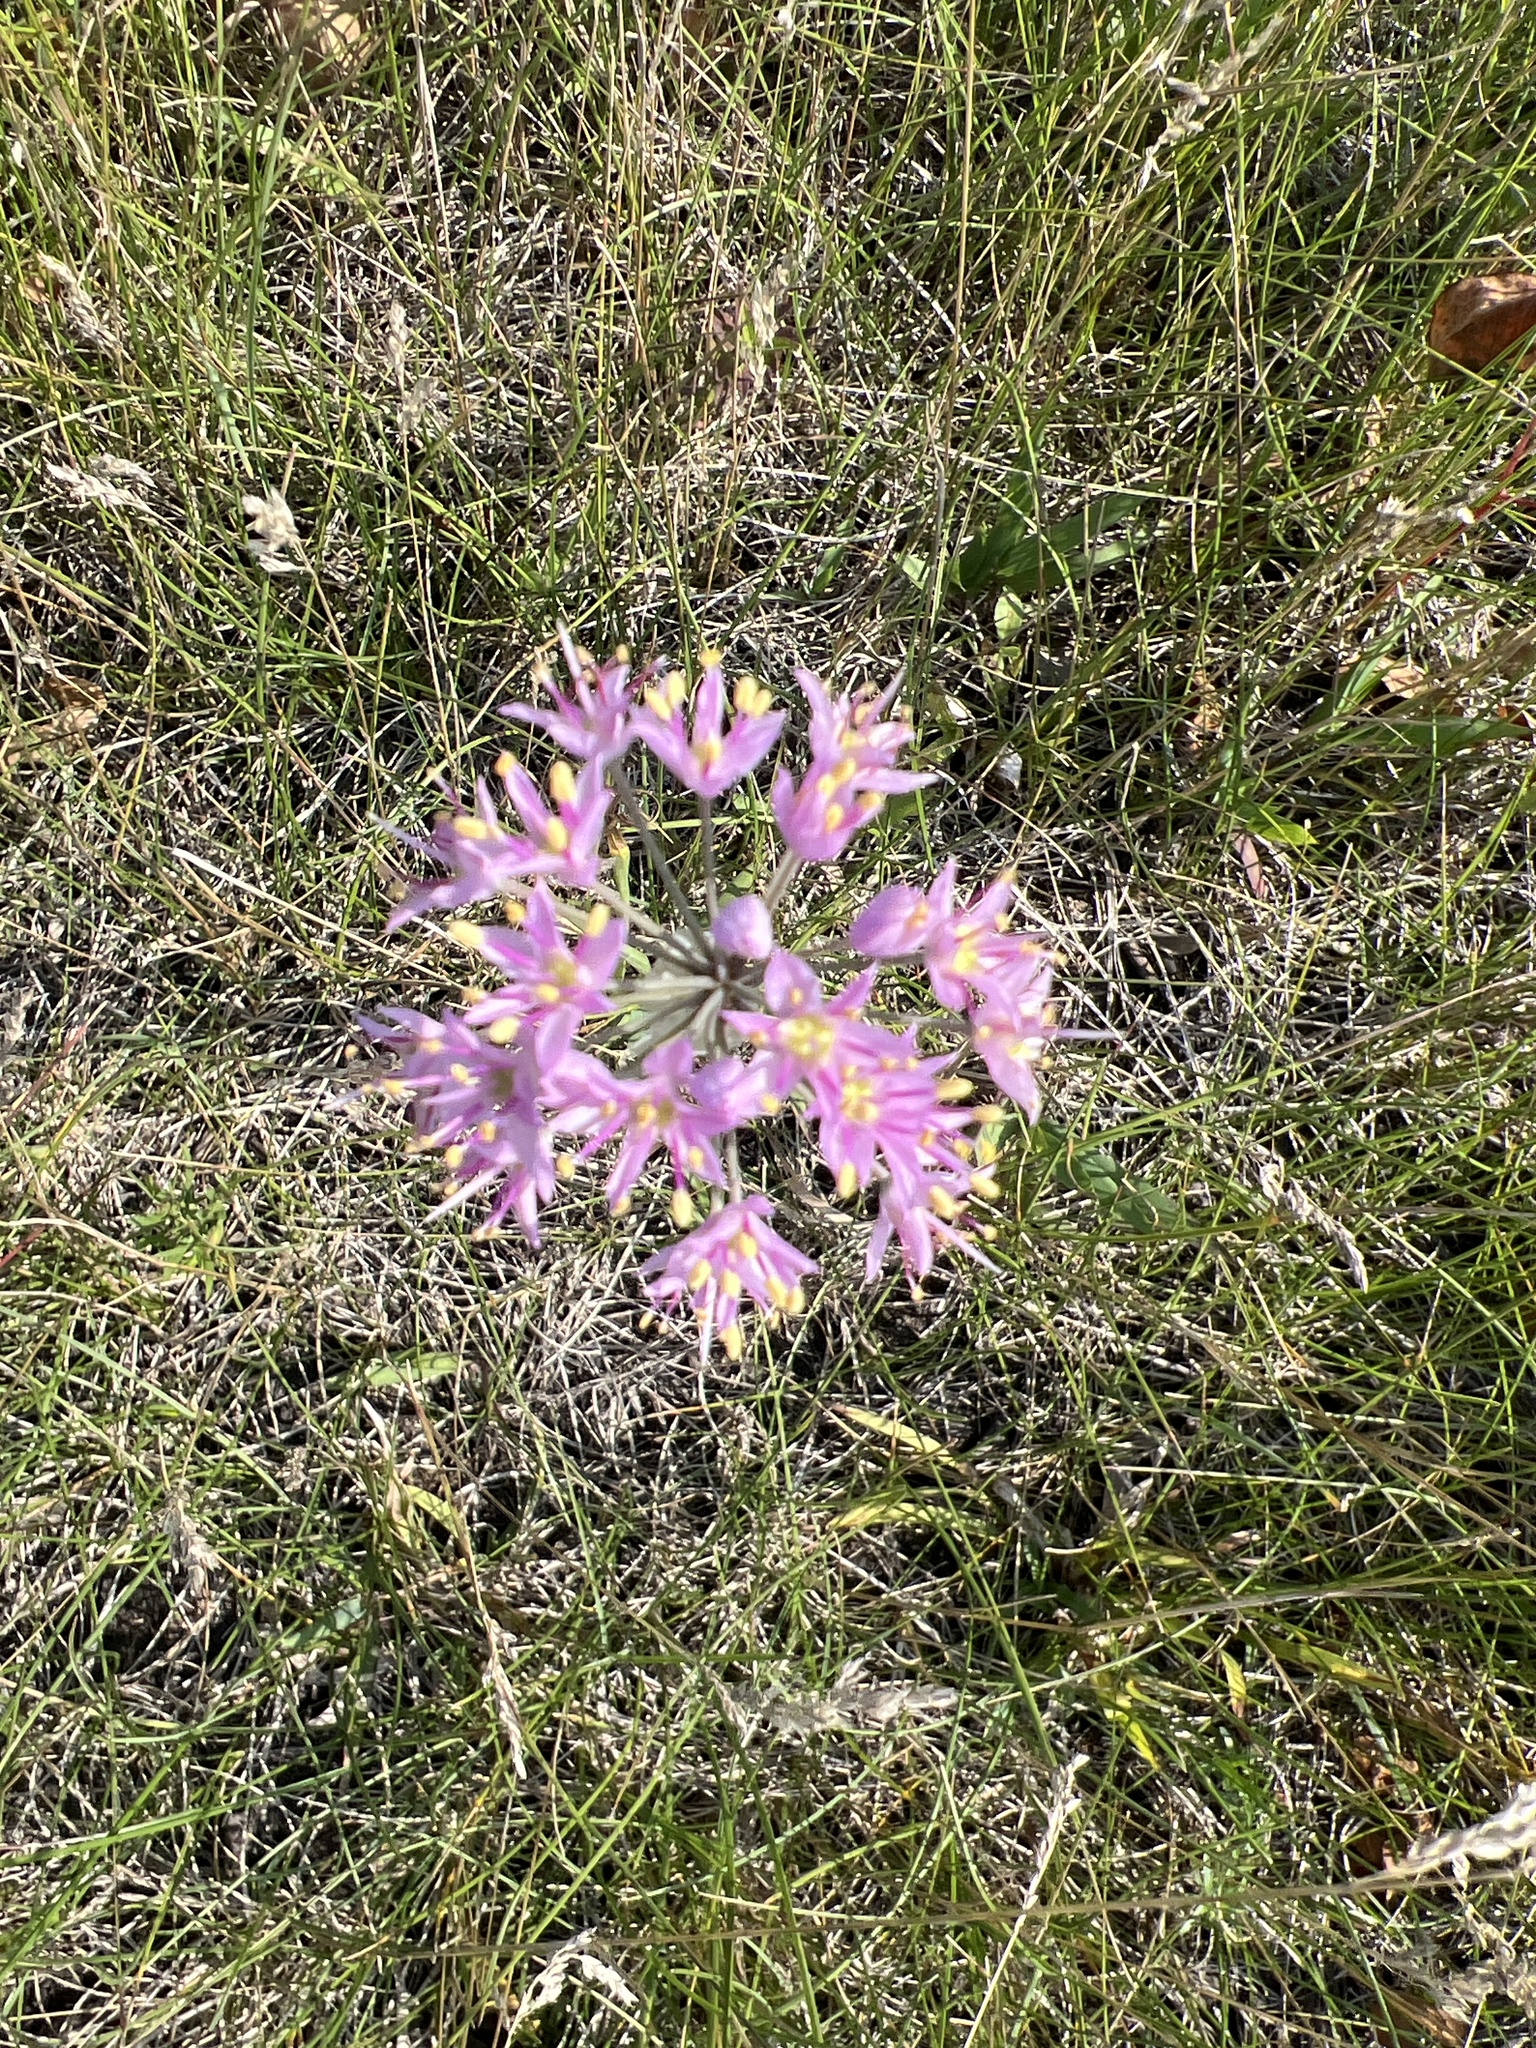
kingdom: Plantae
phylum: Tracheophyta
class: Liliopsida
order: Asparagales
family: Amaryllidaceae
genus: Allium
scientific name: Allium stellatum
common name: Autumn onion
